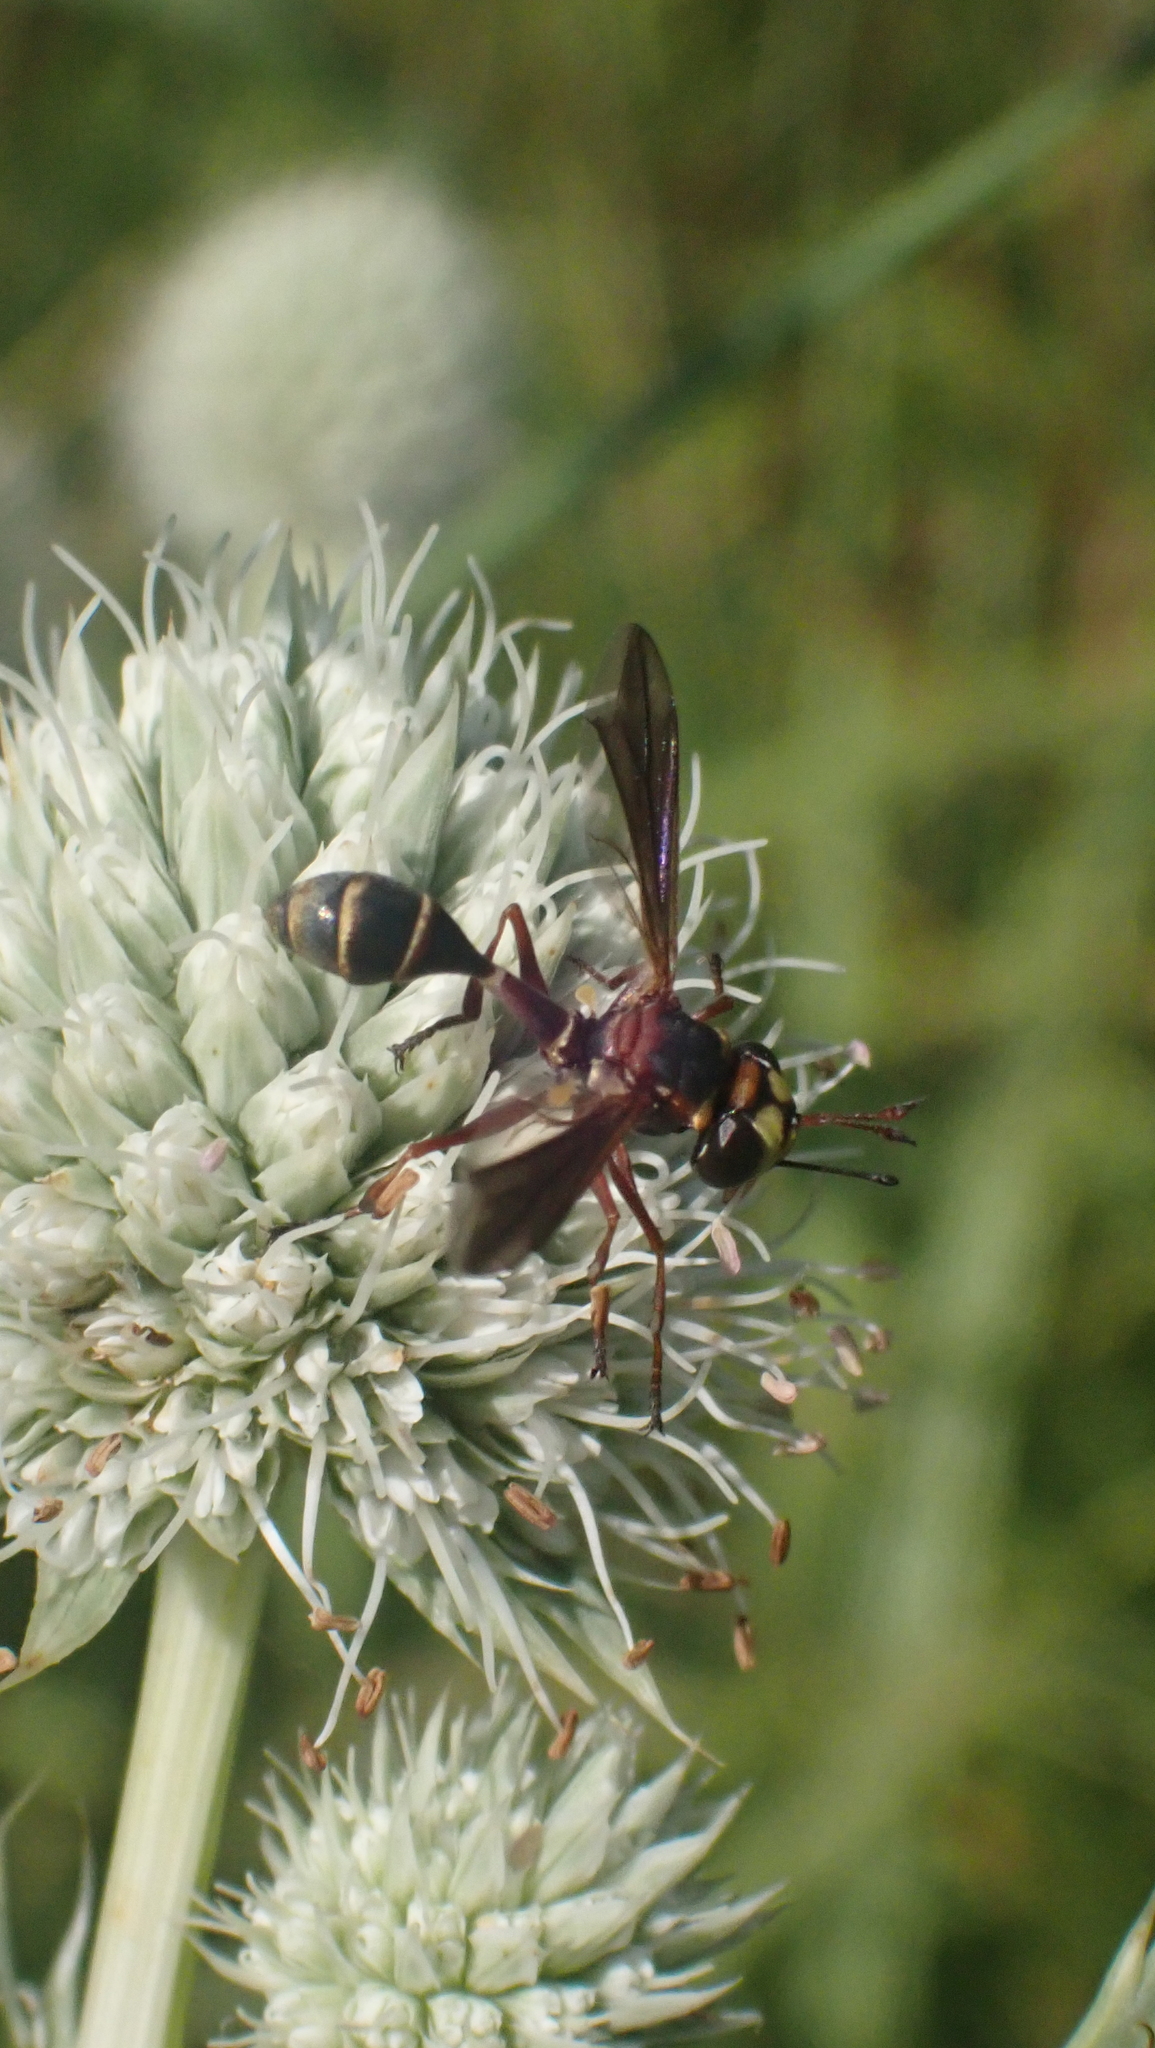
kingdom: Animalia
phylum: Arthropoda
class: Insecta
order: Diptera
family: Conopidae
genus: Physocephala
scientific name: Physocephala sagittaria
